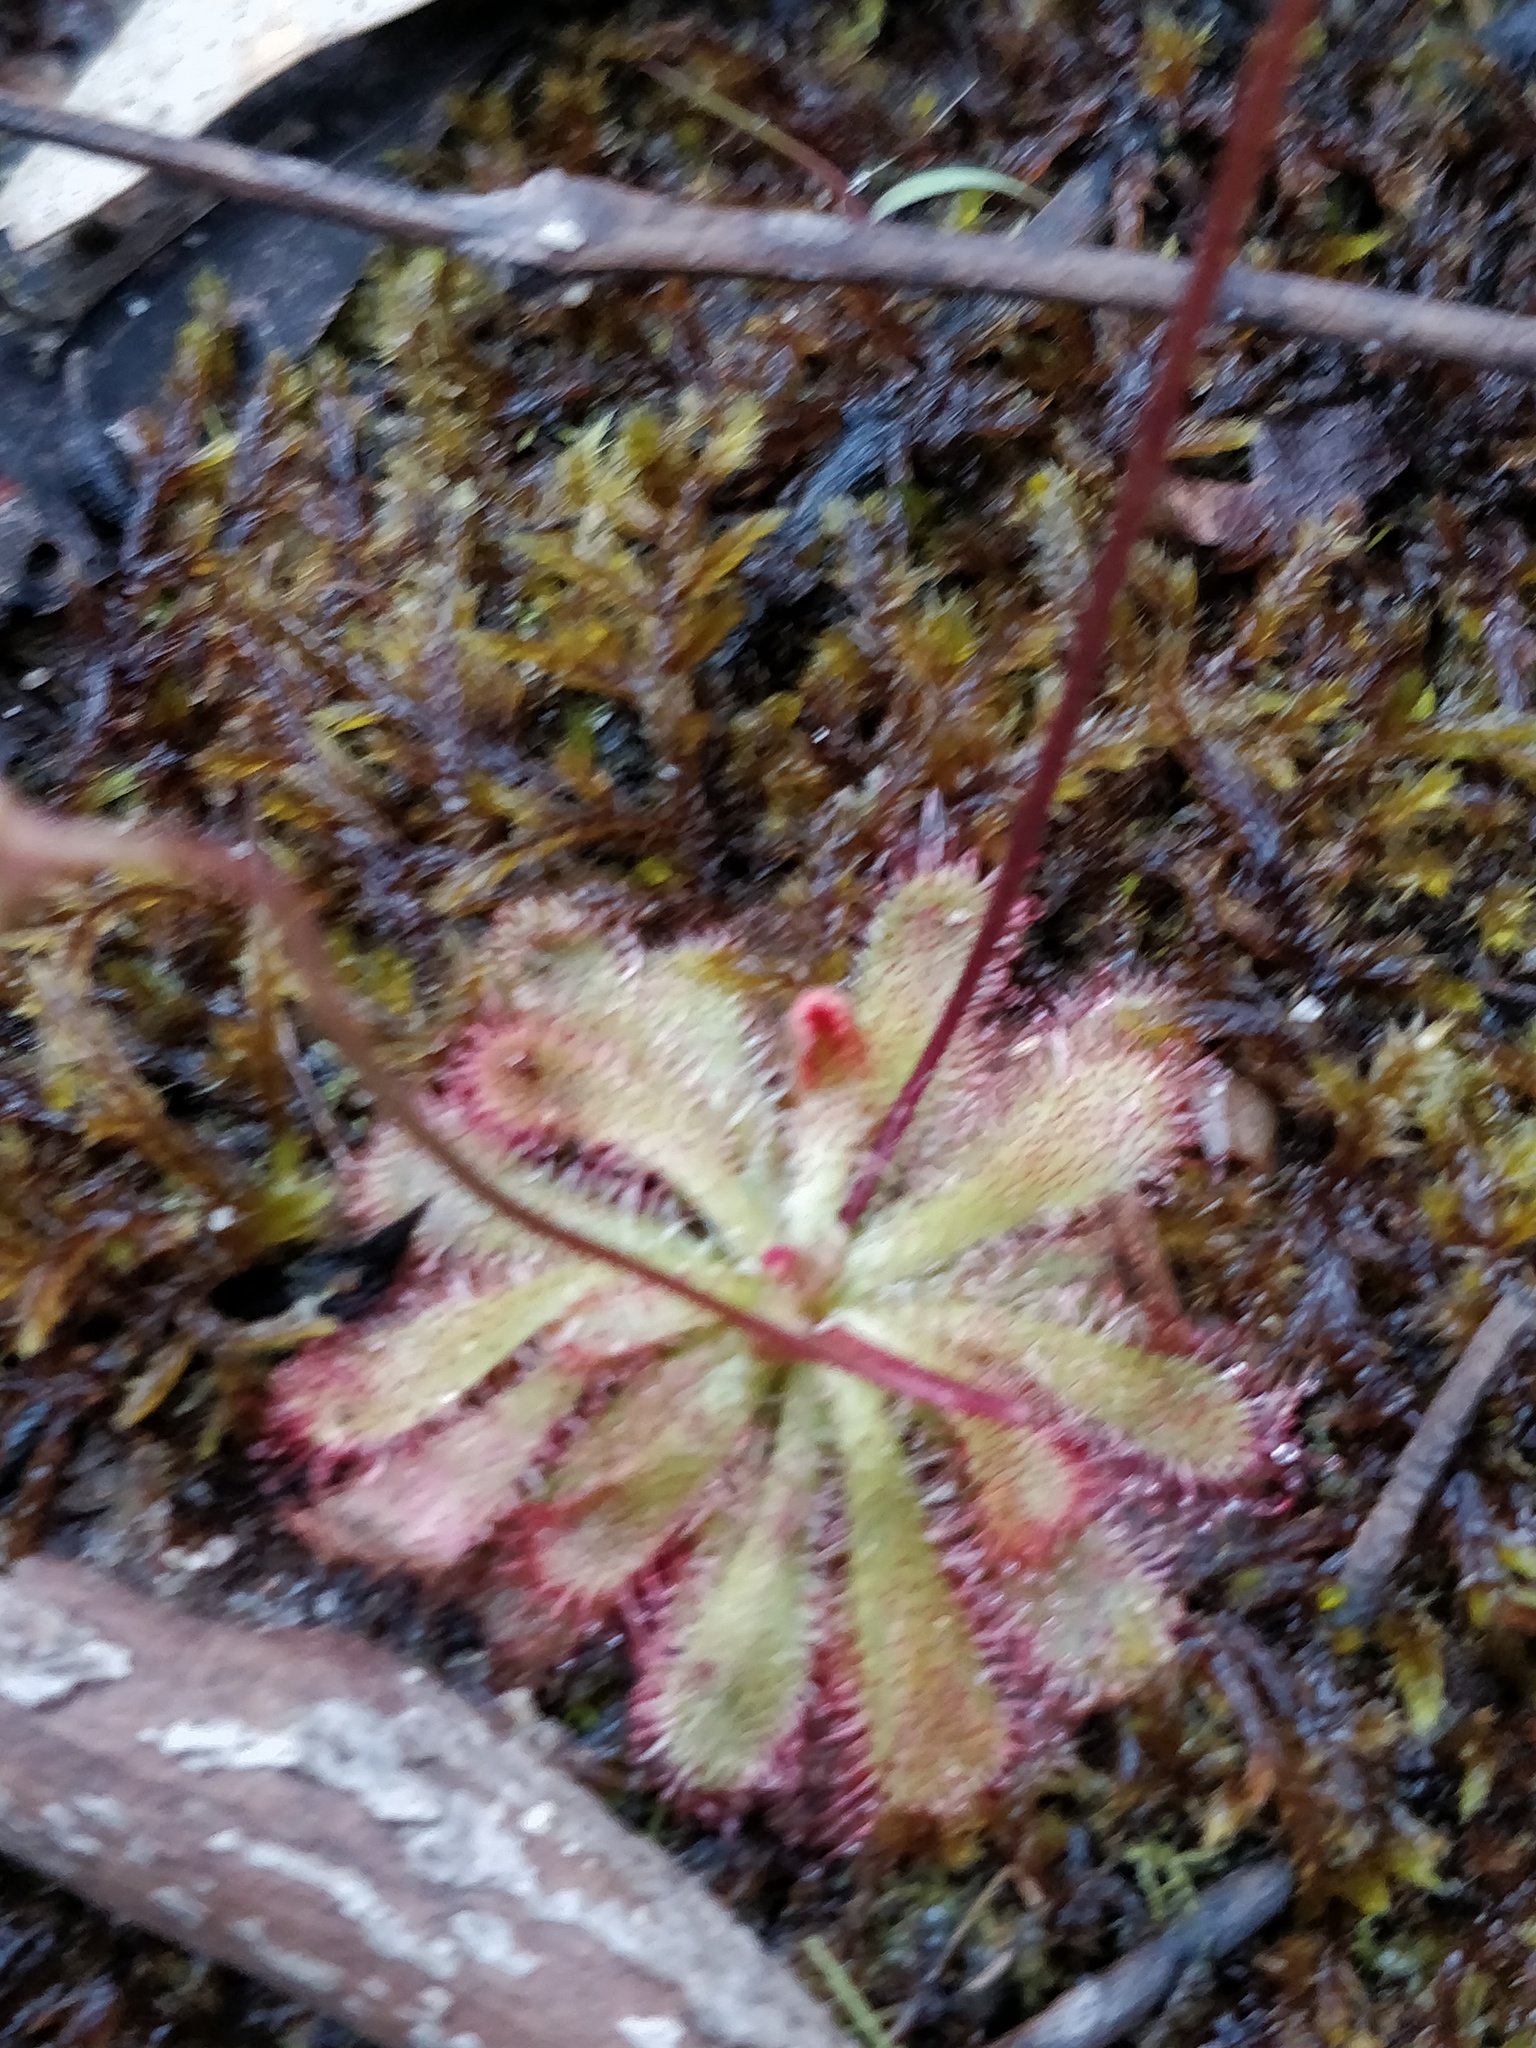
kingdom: Plantae
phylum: Tracheophyta
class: Magnoliopsida
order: Caryophyllales
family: Droseraceae
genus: Drosera
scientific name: Drosera spatulata
